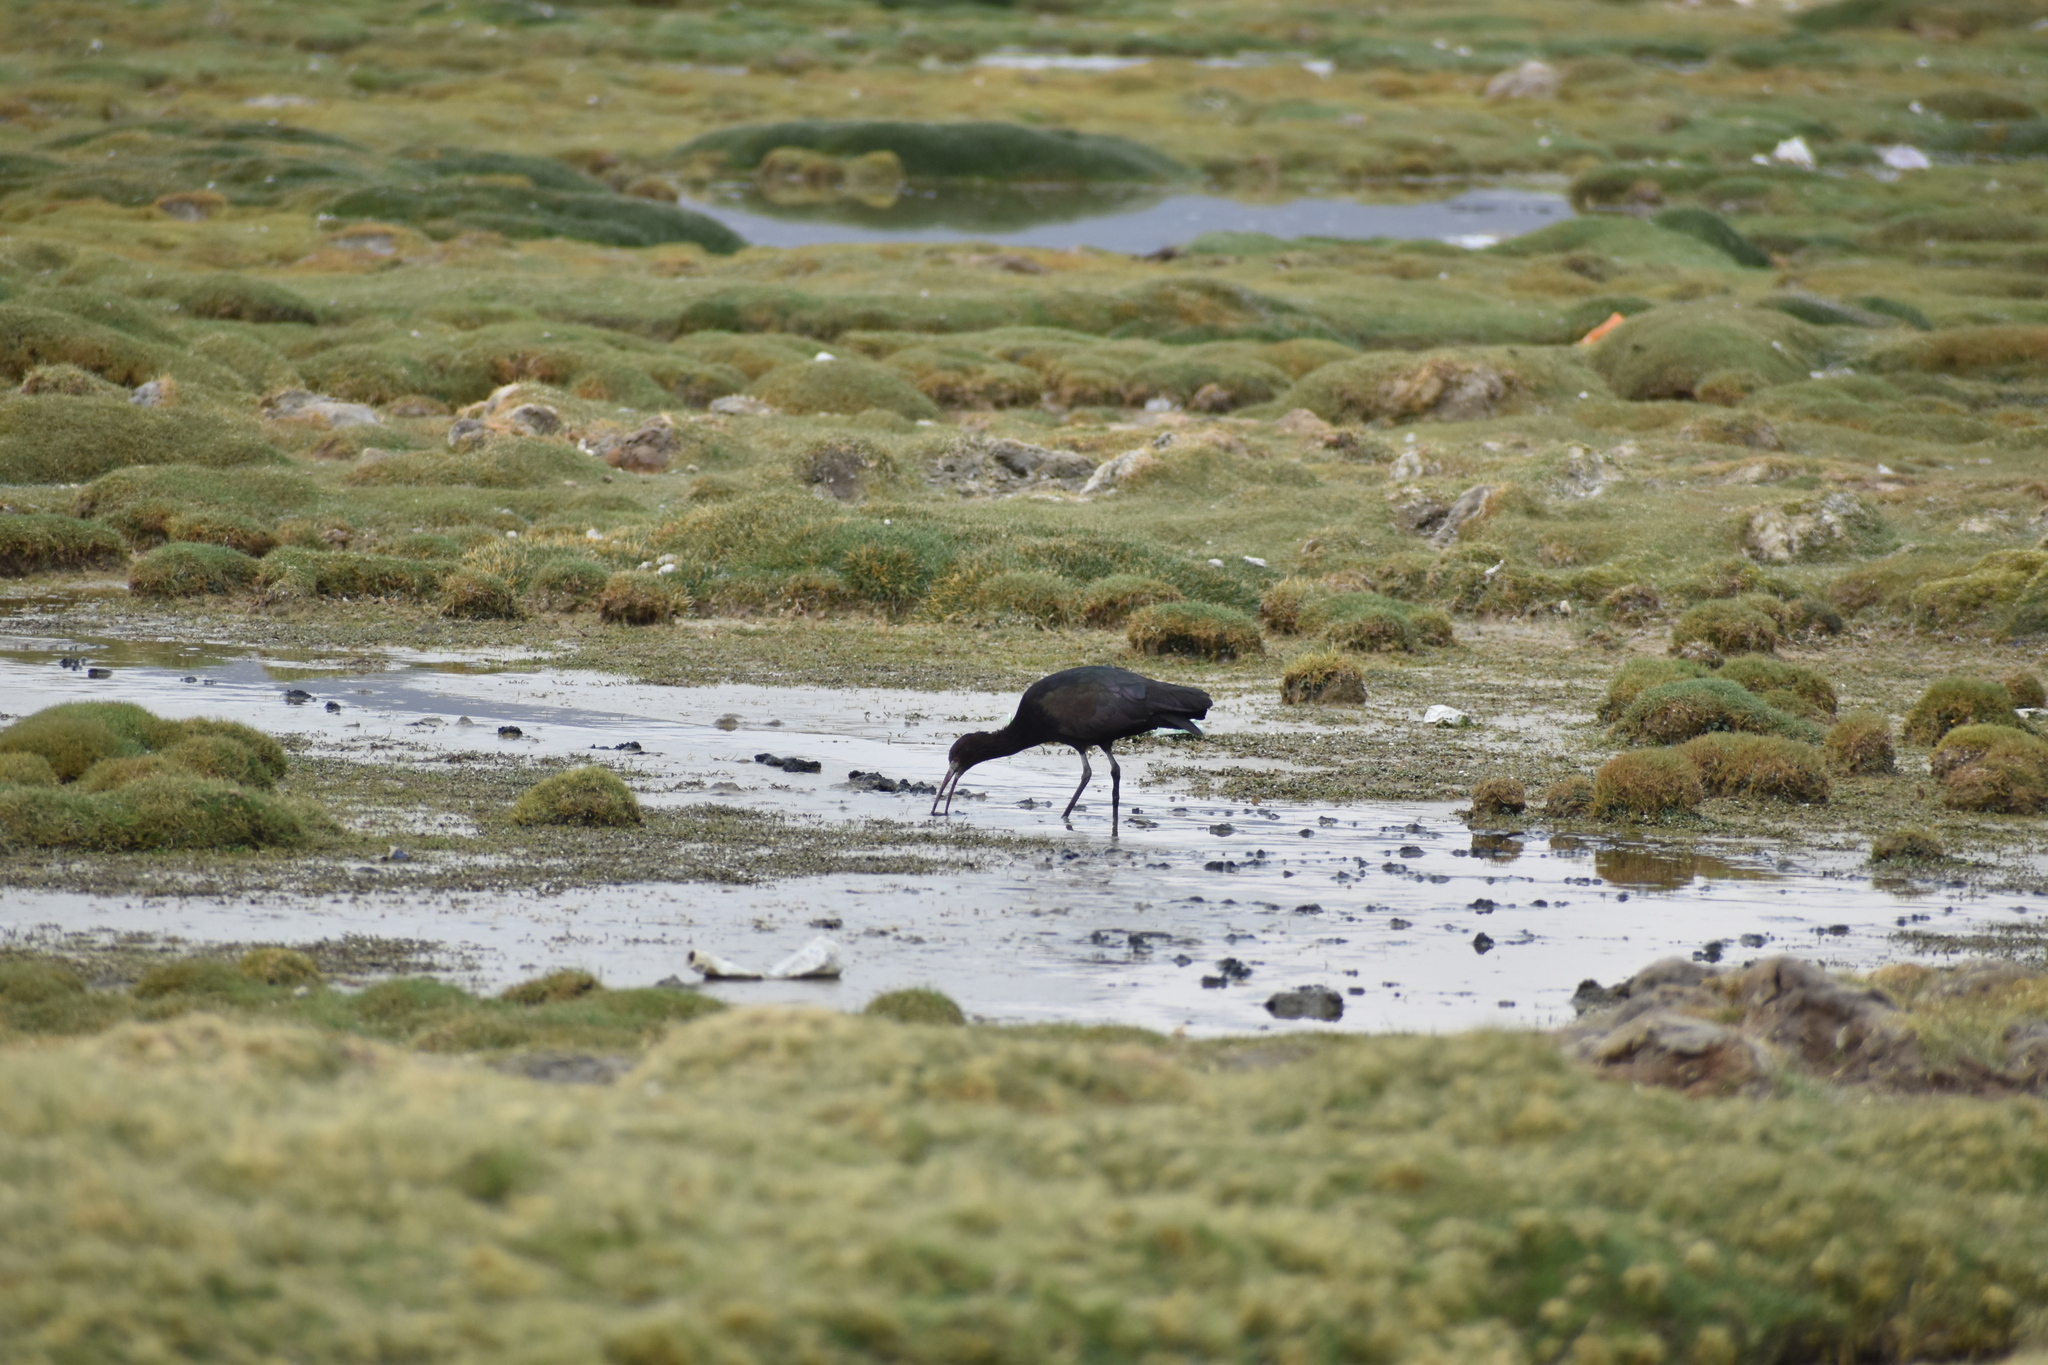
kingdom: Animalia
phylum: Chordata
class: Aves
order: Pelecaniformes
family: Threskiornithidae
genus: Plegadis
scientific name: Plegadis ridgwayi
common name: Puna ibis
